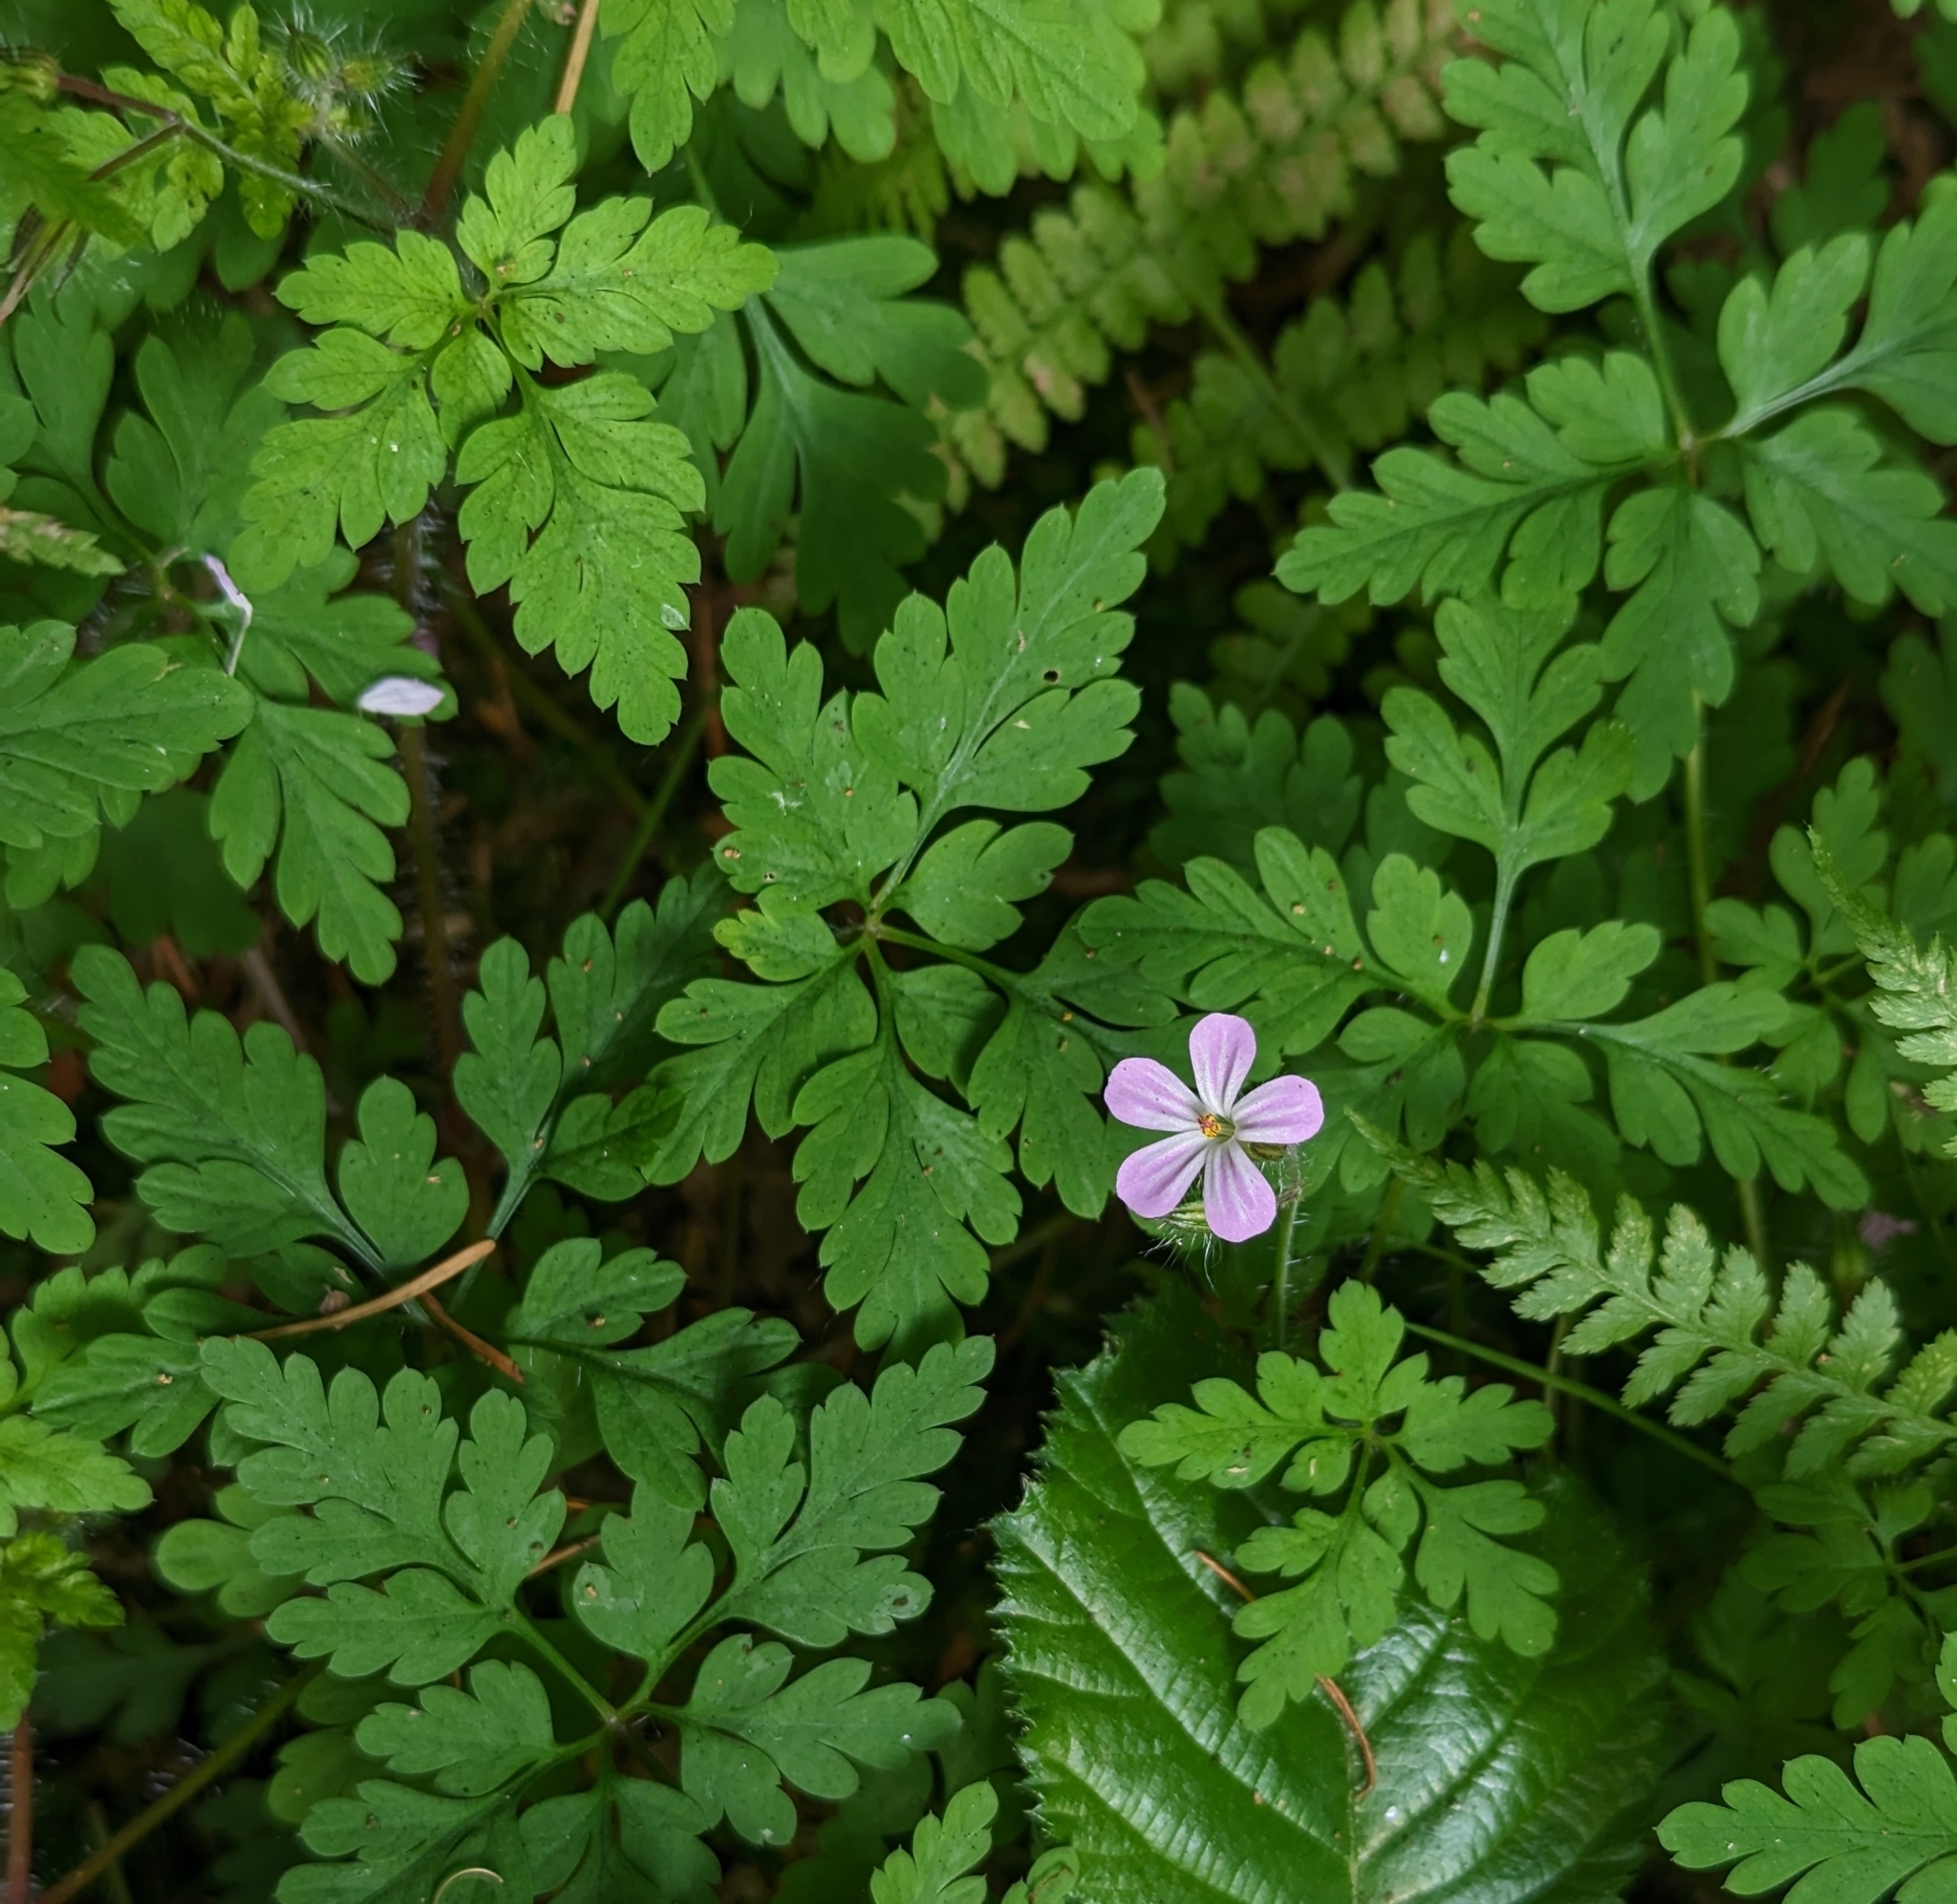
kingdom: Plantae
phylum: Tracheophyta
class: Magnoliopsida
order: Geraniales
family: Geraniaceae
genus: Geranium
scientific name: Geranium robertianum
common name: Herb-robert
